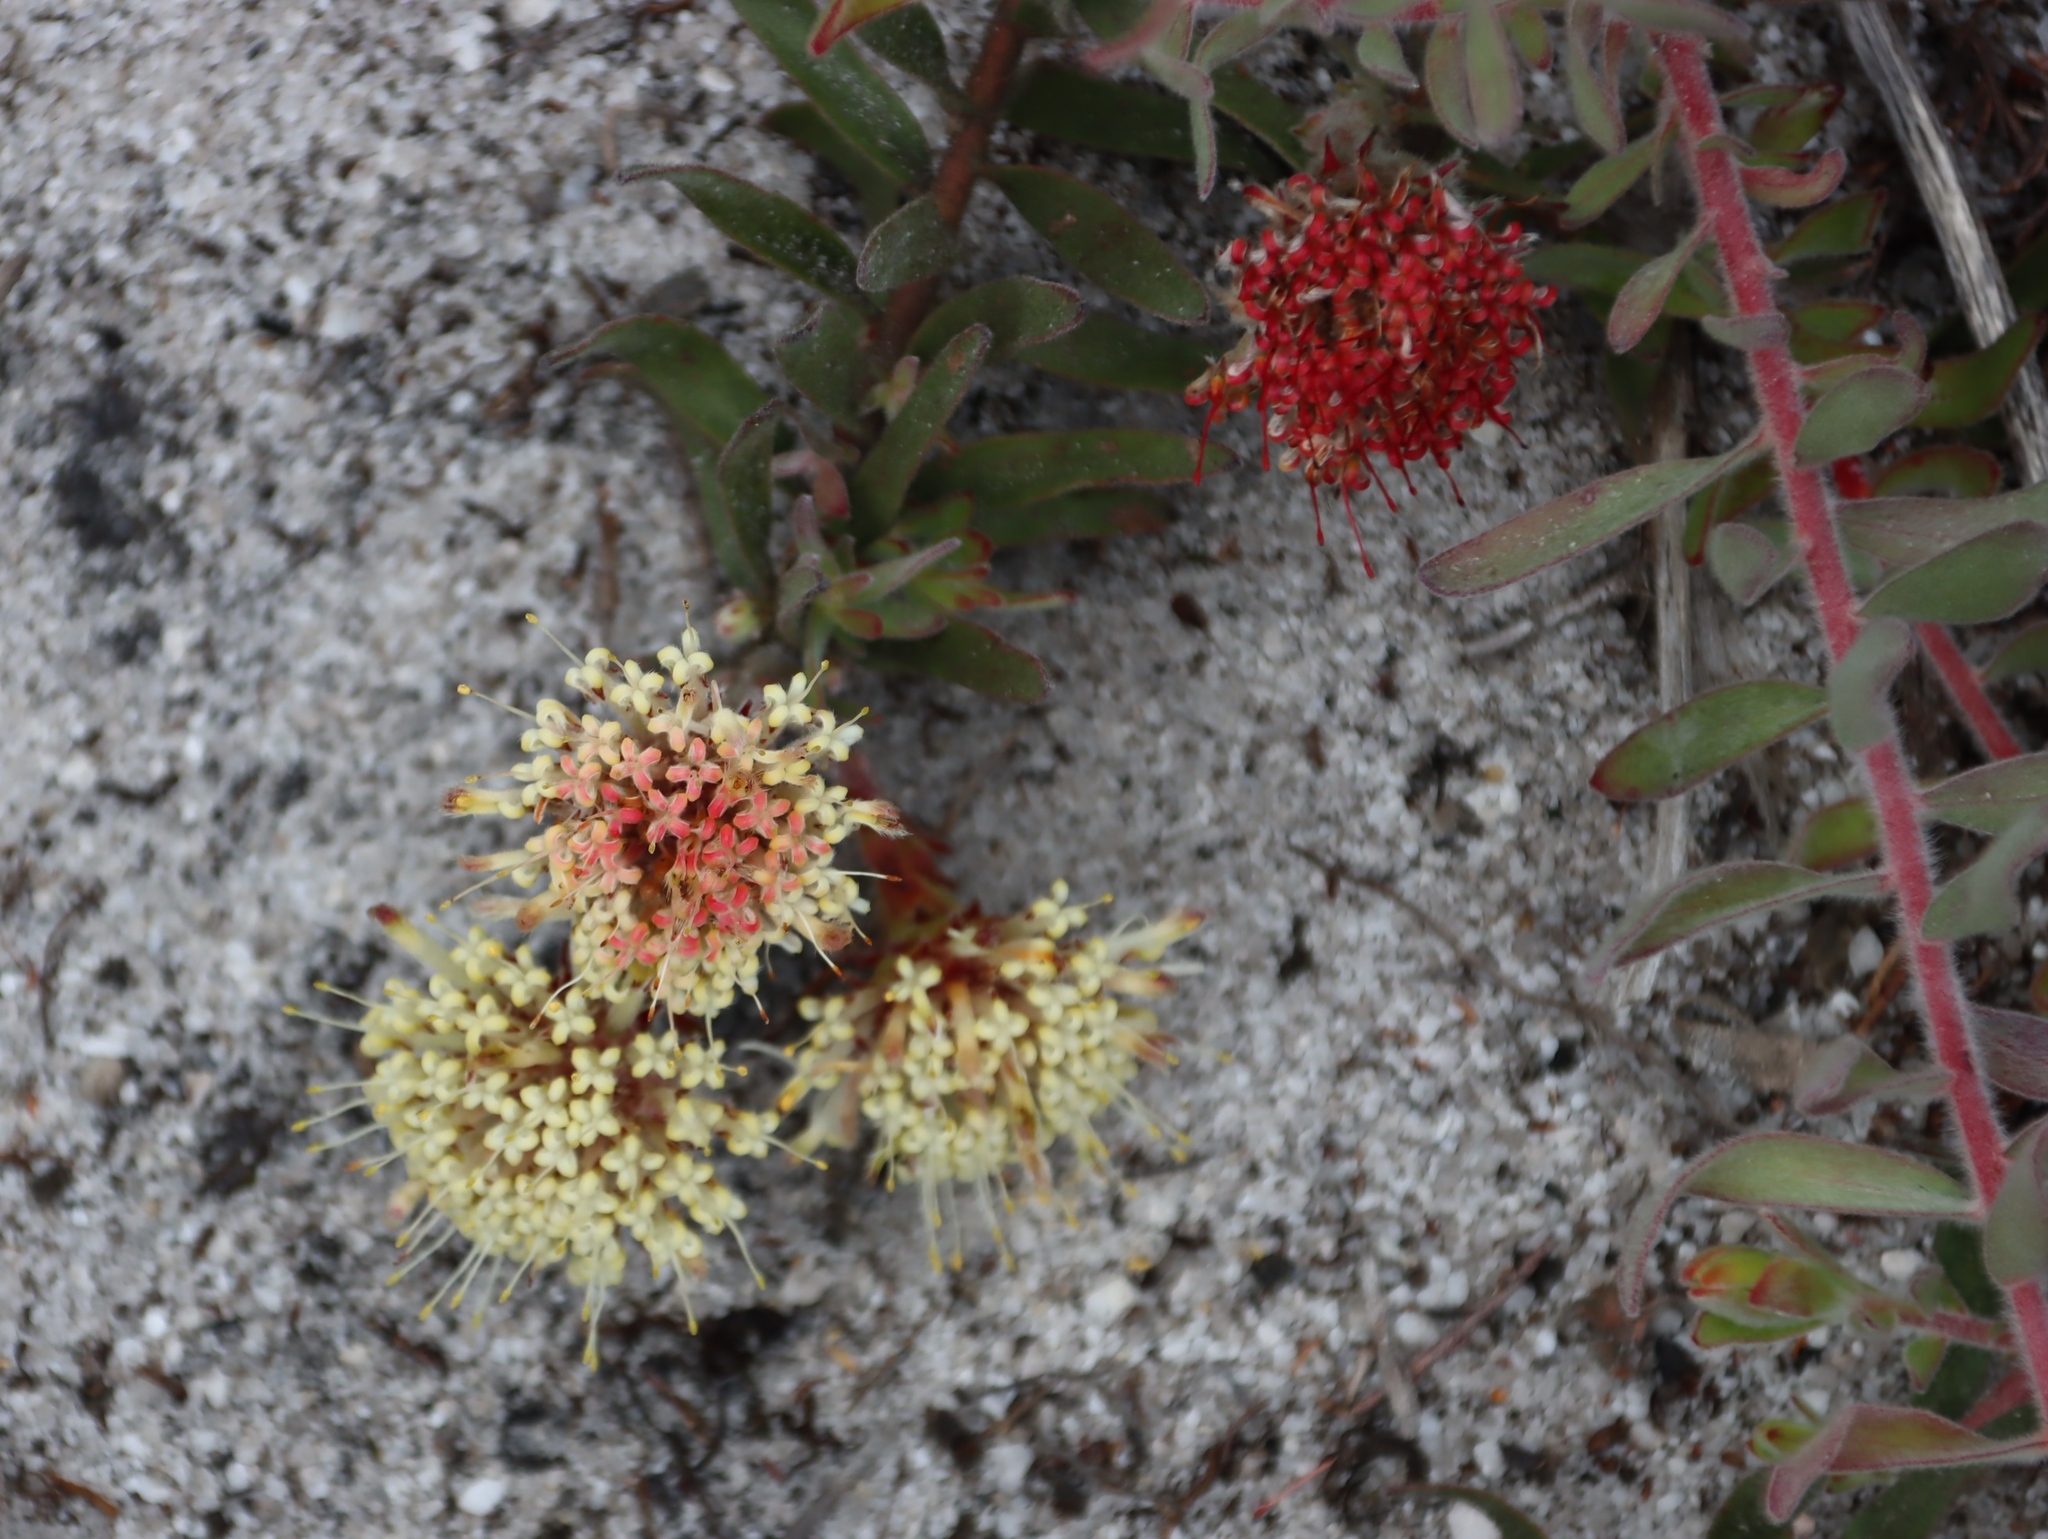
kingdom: Plantae
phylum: Tracheophyta
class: Magnoliopsida
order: Proteales
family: Proteaceae
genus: Leucospermum
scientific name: Leucospermum pedunculatum
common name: White-trailing pincushion
